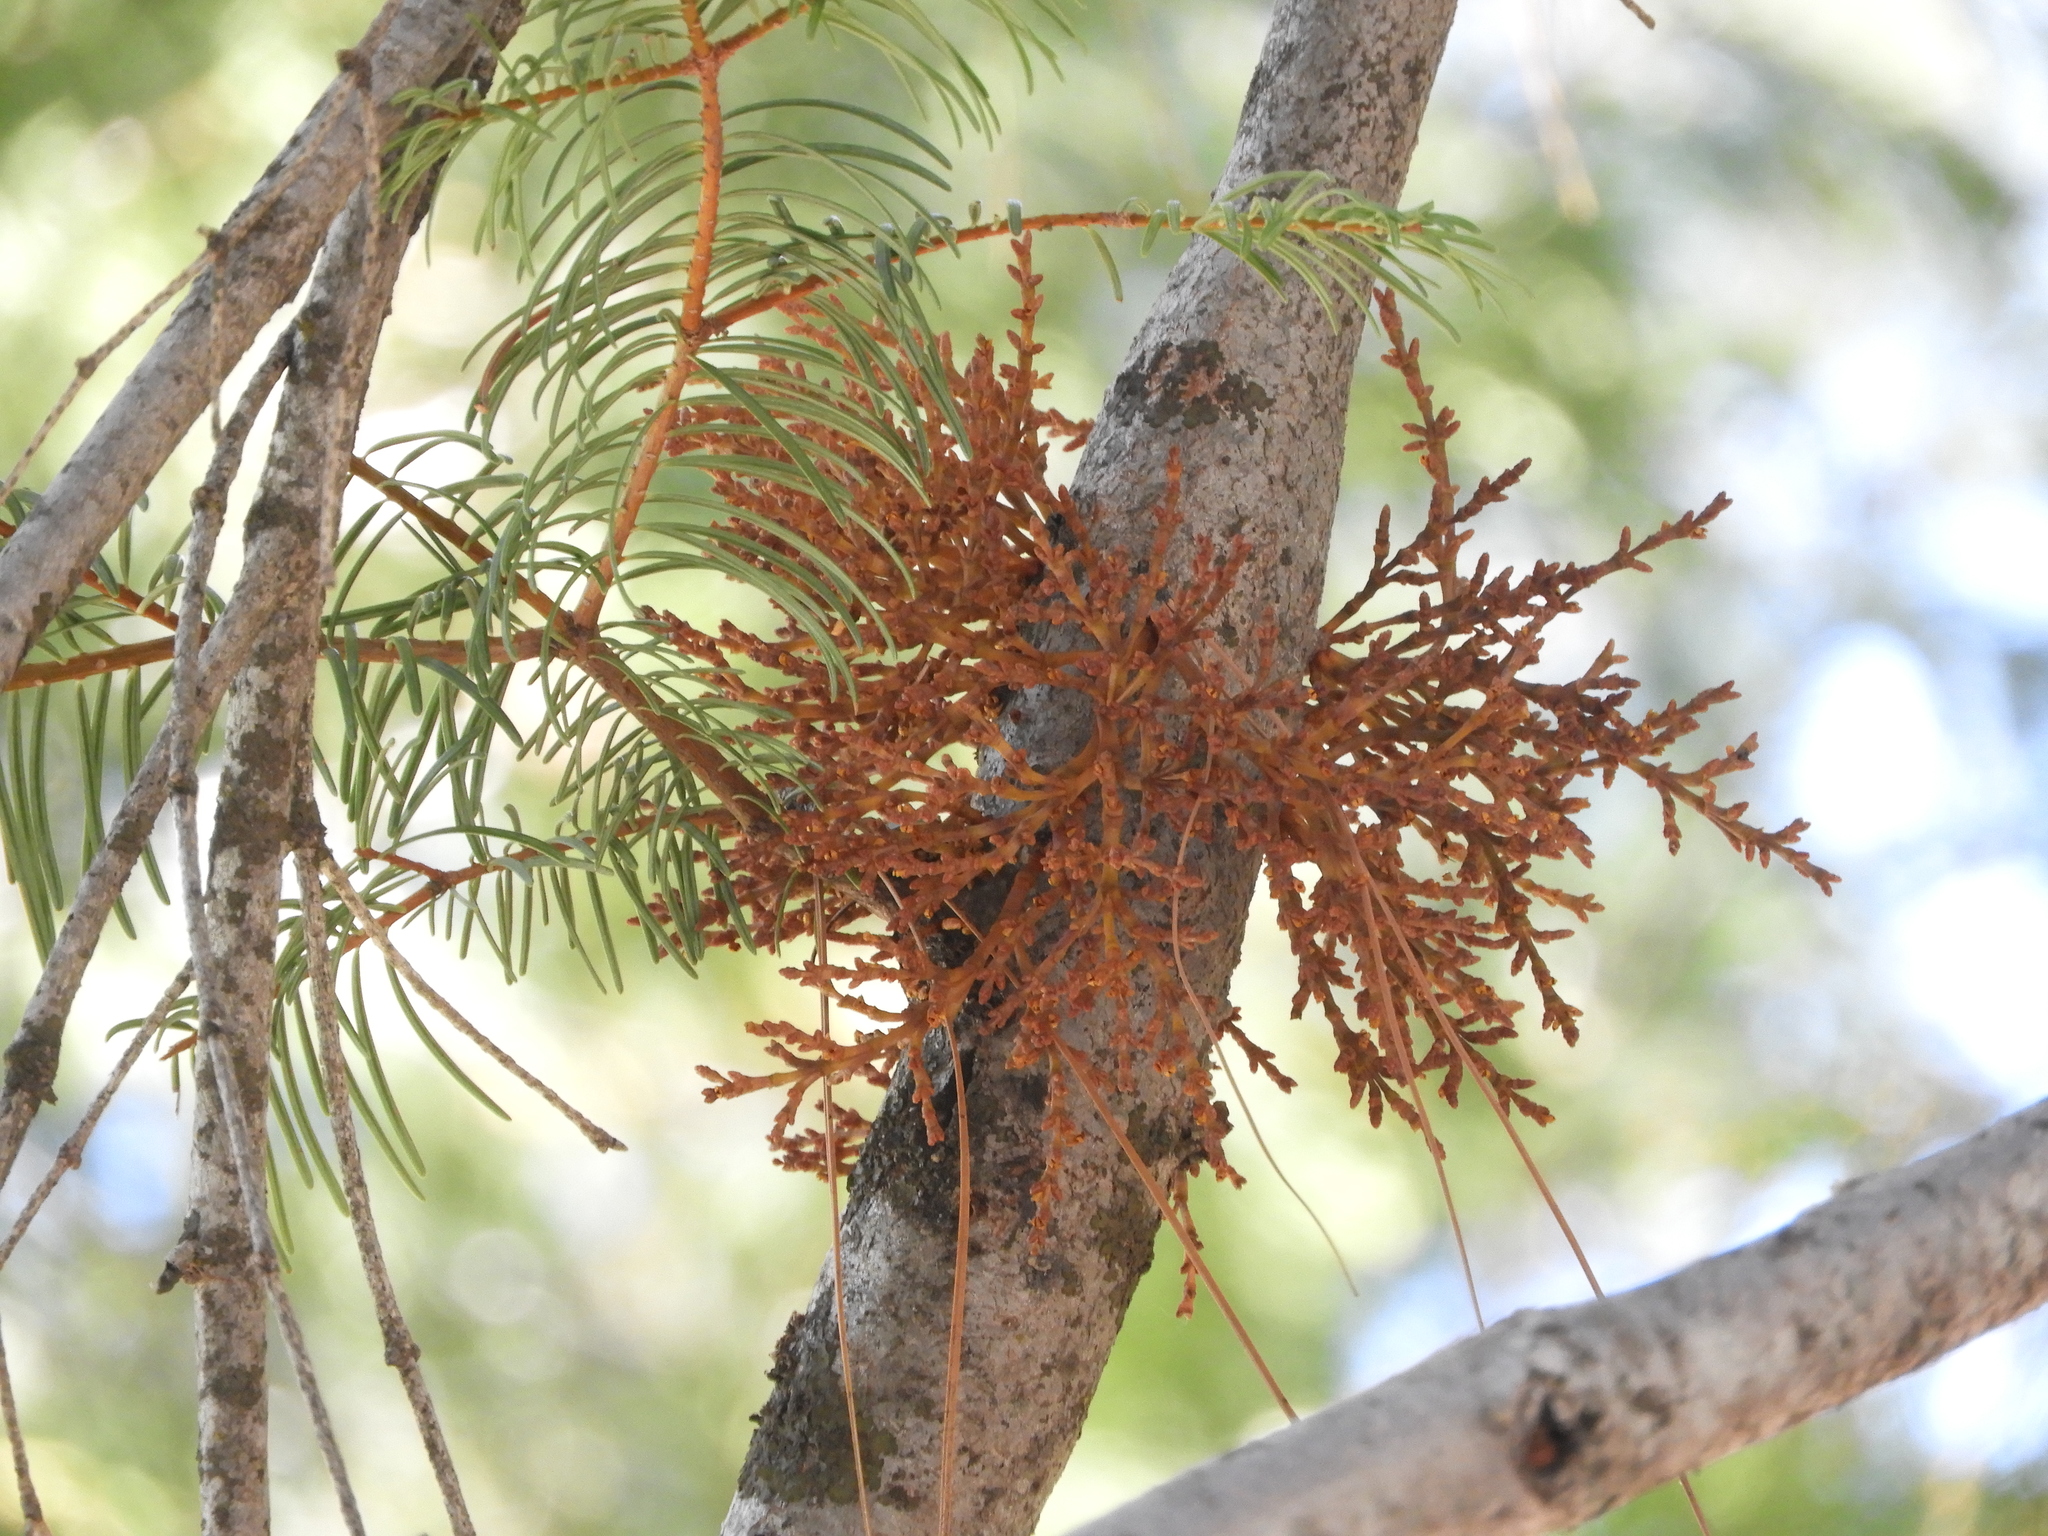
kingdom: Plantae
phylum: Tracheophyta
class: Magnoliopsida
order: Santalales
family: Viscaceae
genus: Arceuthobium
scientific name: Arceuthobium campylopodum
